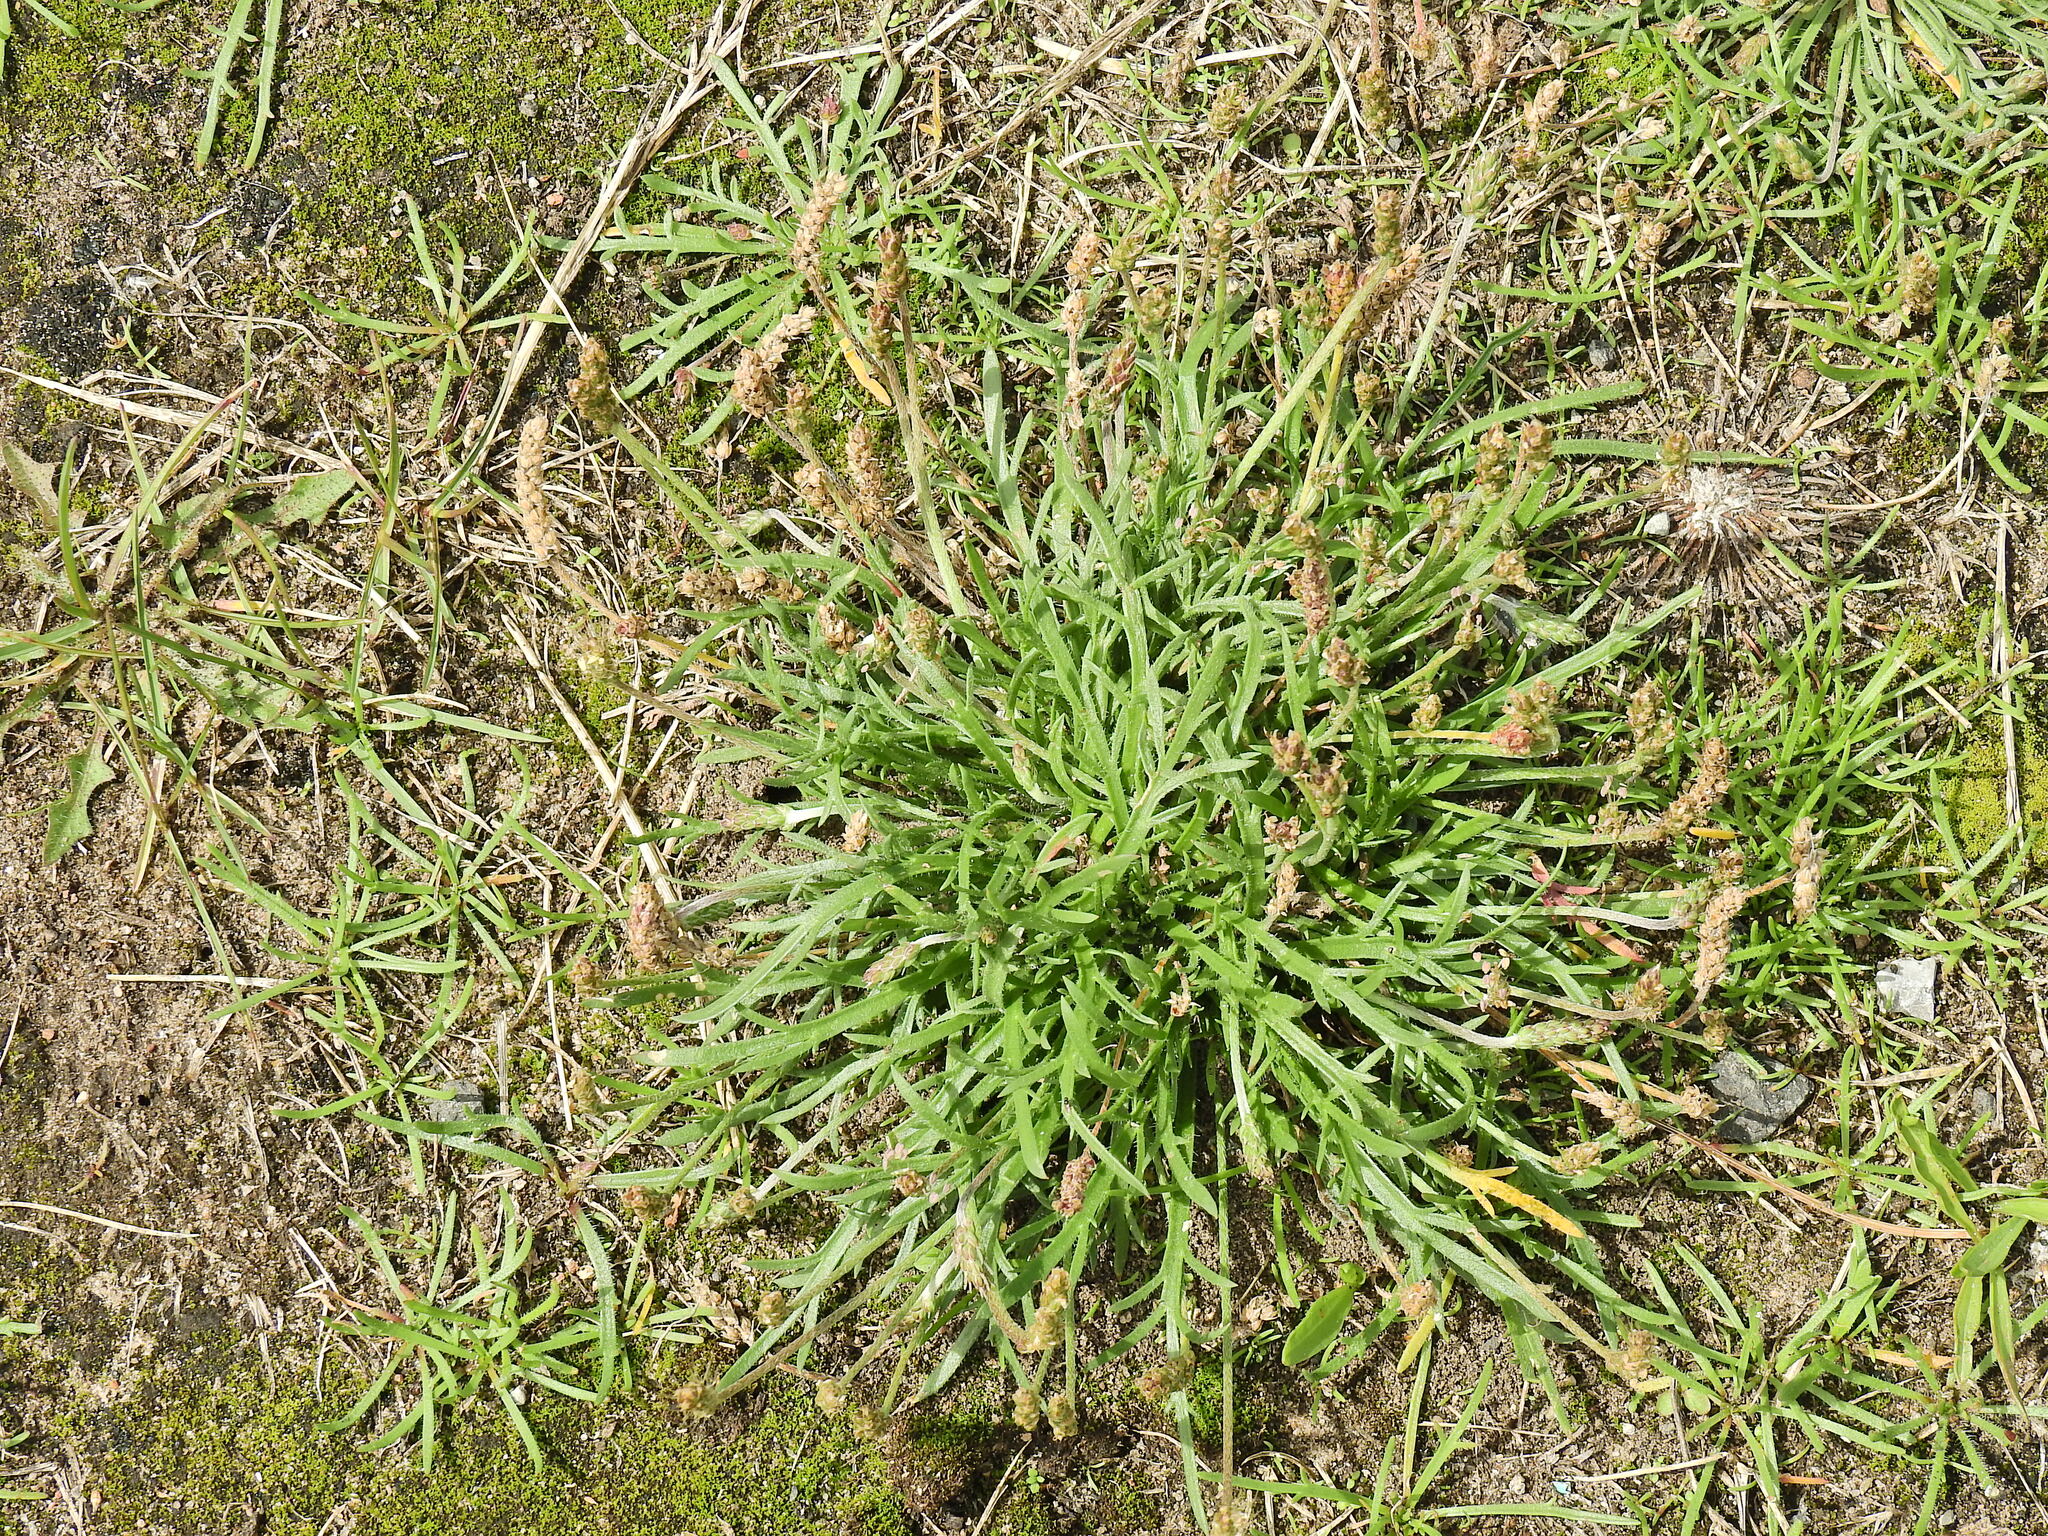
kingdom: Plantae
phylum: Tracheophyta
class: Magnoliopsida
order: Lamiales
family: Plantaginaceae
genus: Plantago
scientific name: Plantago coronopus
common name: Buck's-horn plantain
